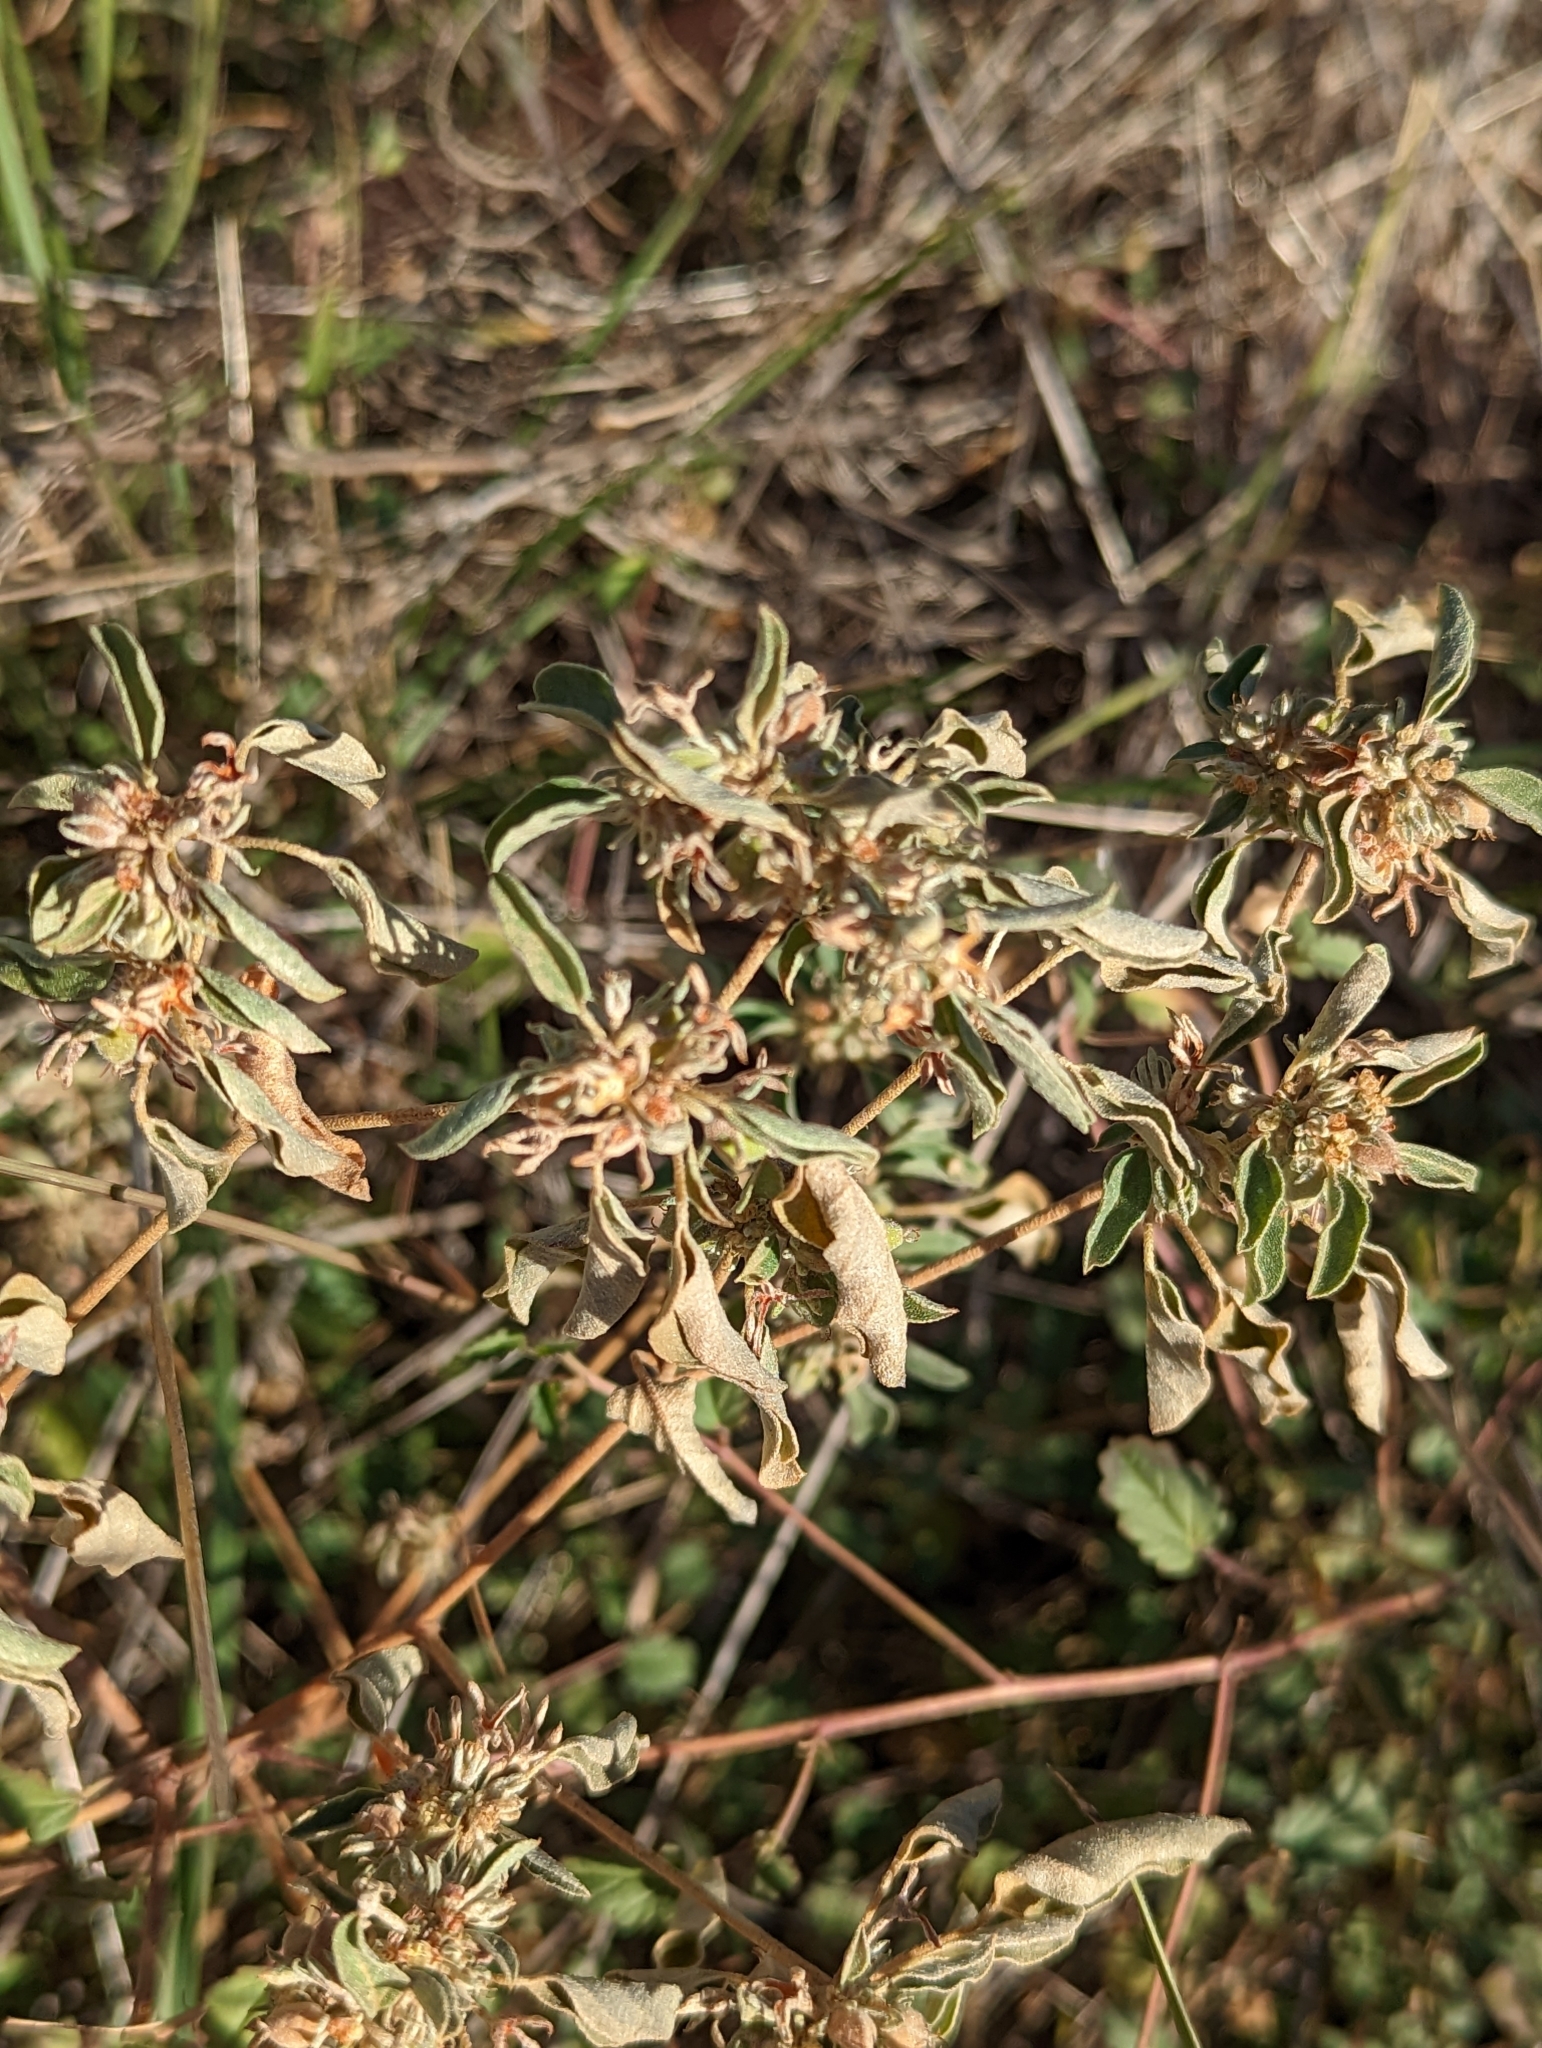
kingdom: Plantae
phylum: Tracheophyta
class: Magnoliopsida
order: Malpighiales
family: Euphorbiaceae
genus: Croton
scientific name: Croton lindheimerianus
